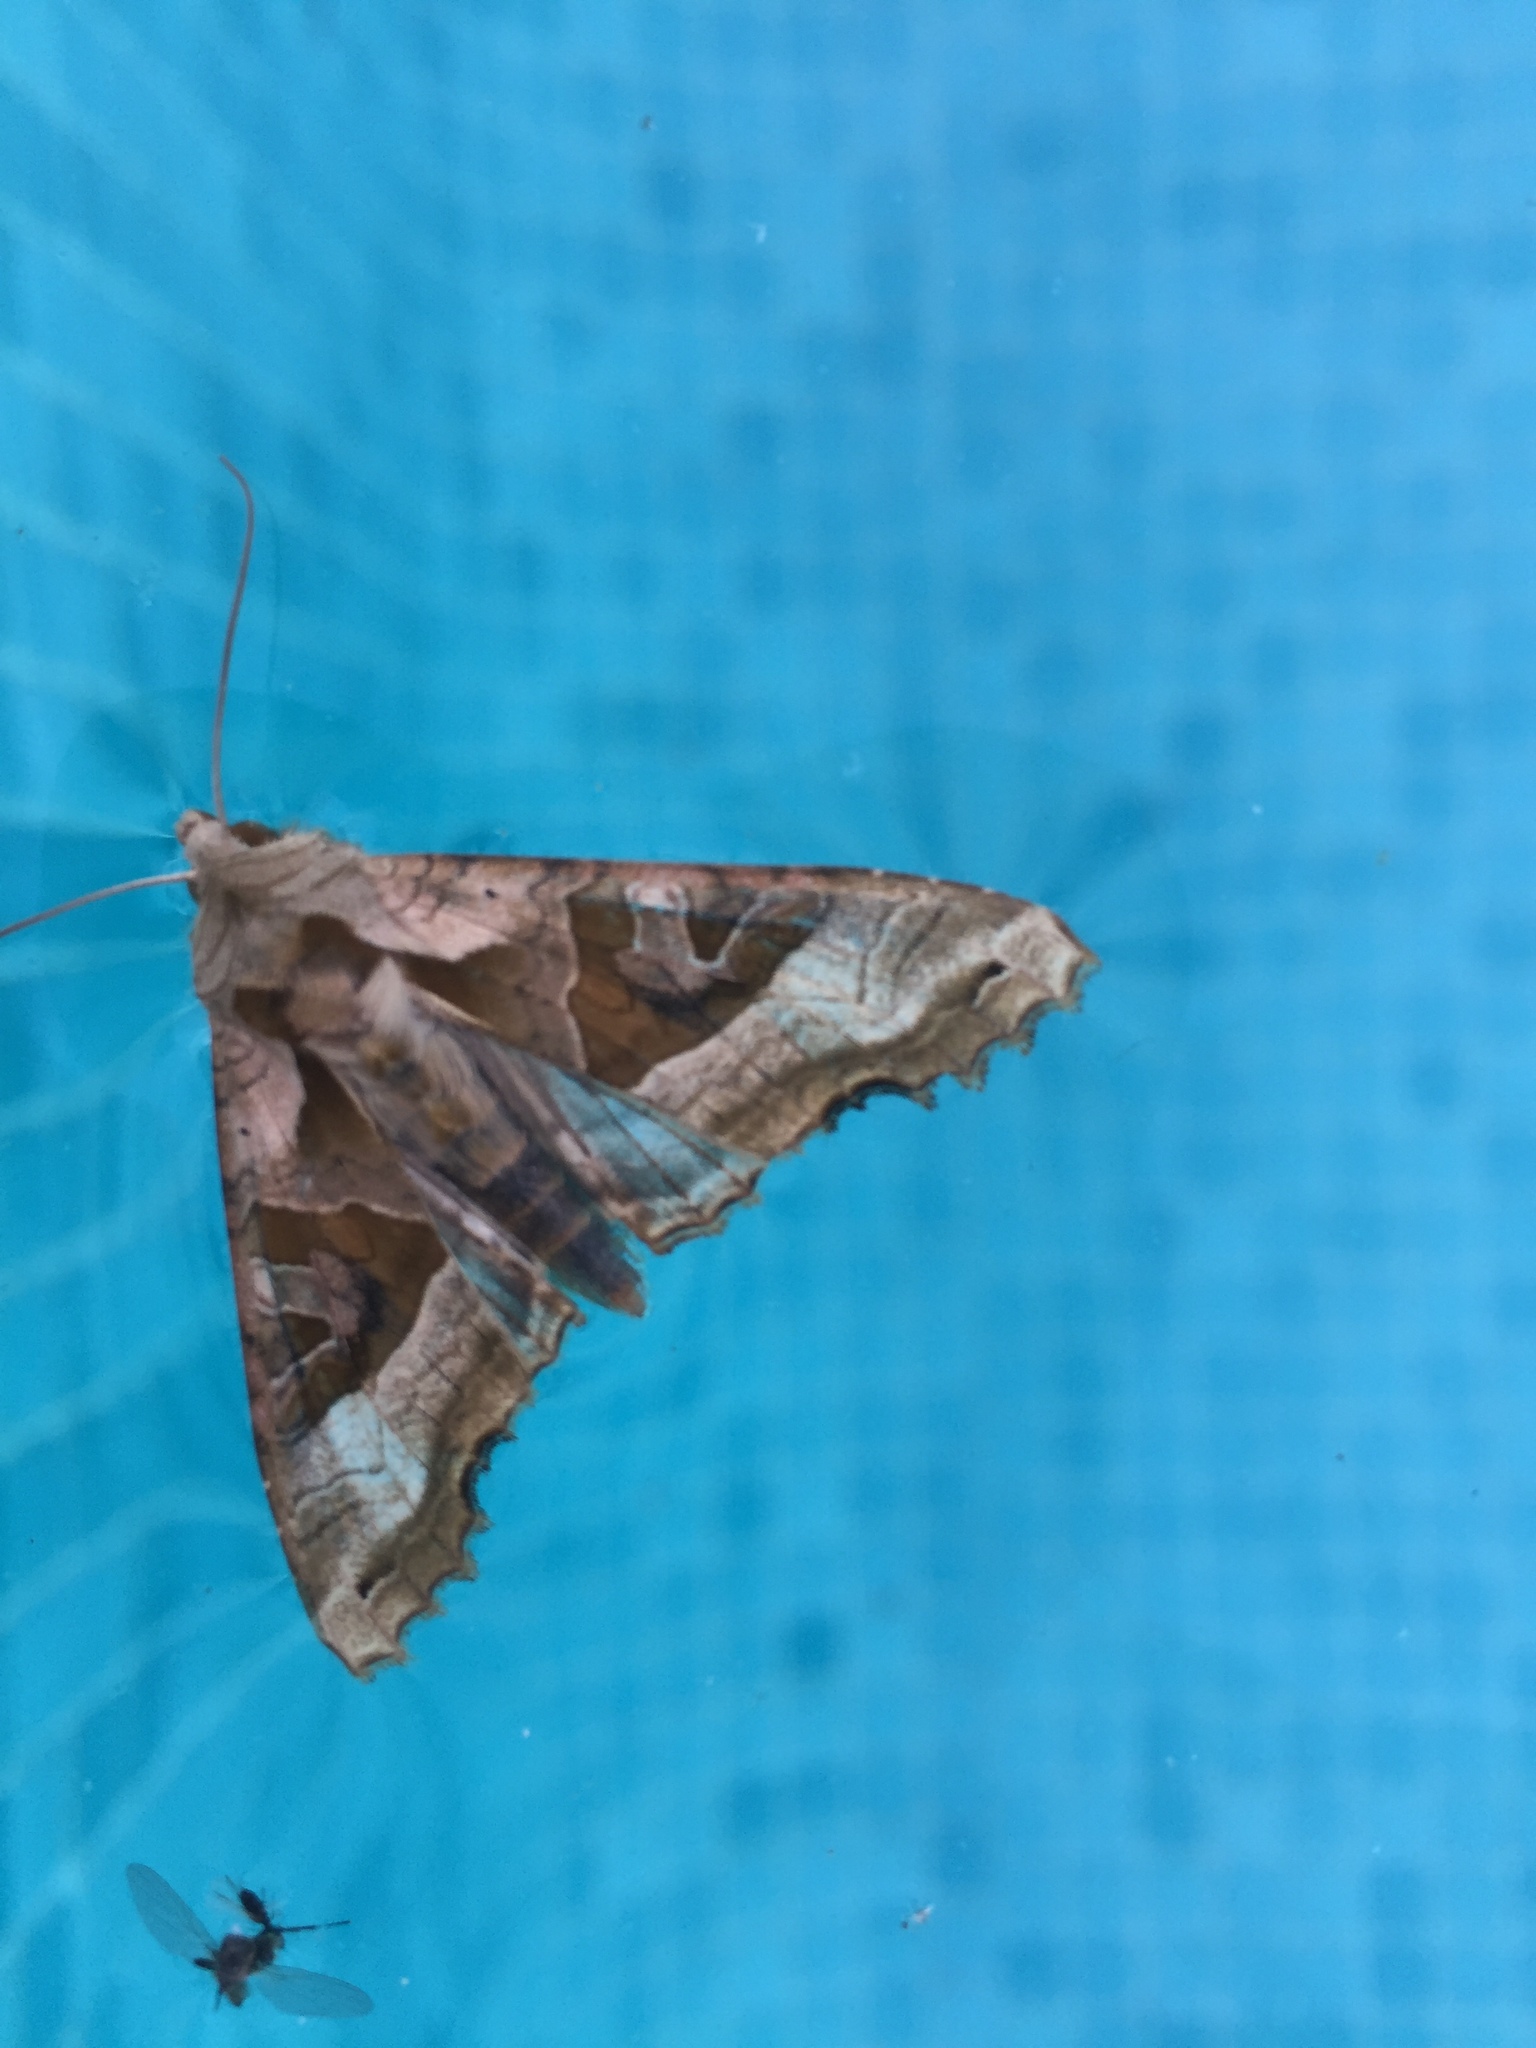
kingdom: Animalia
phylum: Arthropoda
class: Insecta
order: Lepidoptera
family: Noctuidae
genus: Phlogophora
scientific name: Phlogophora meticulosa
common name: Angle shades
